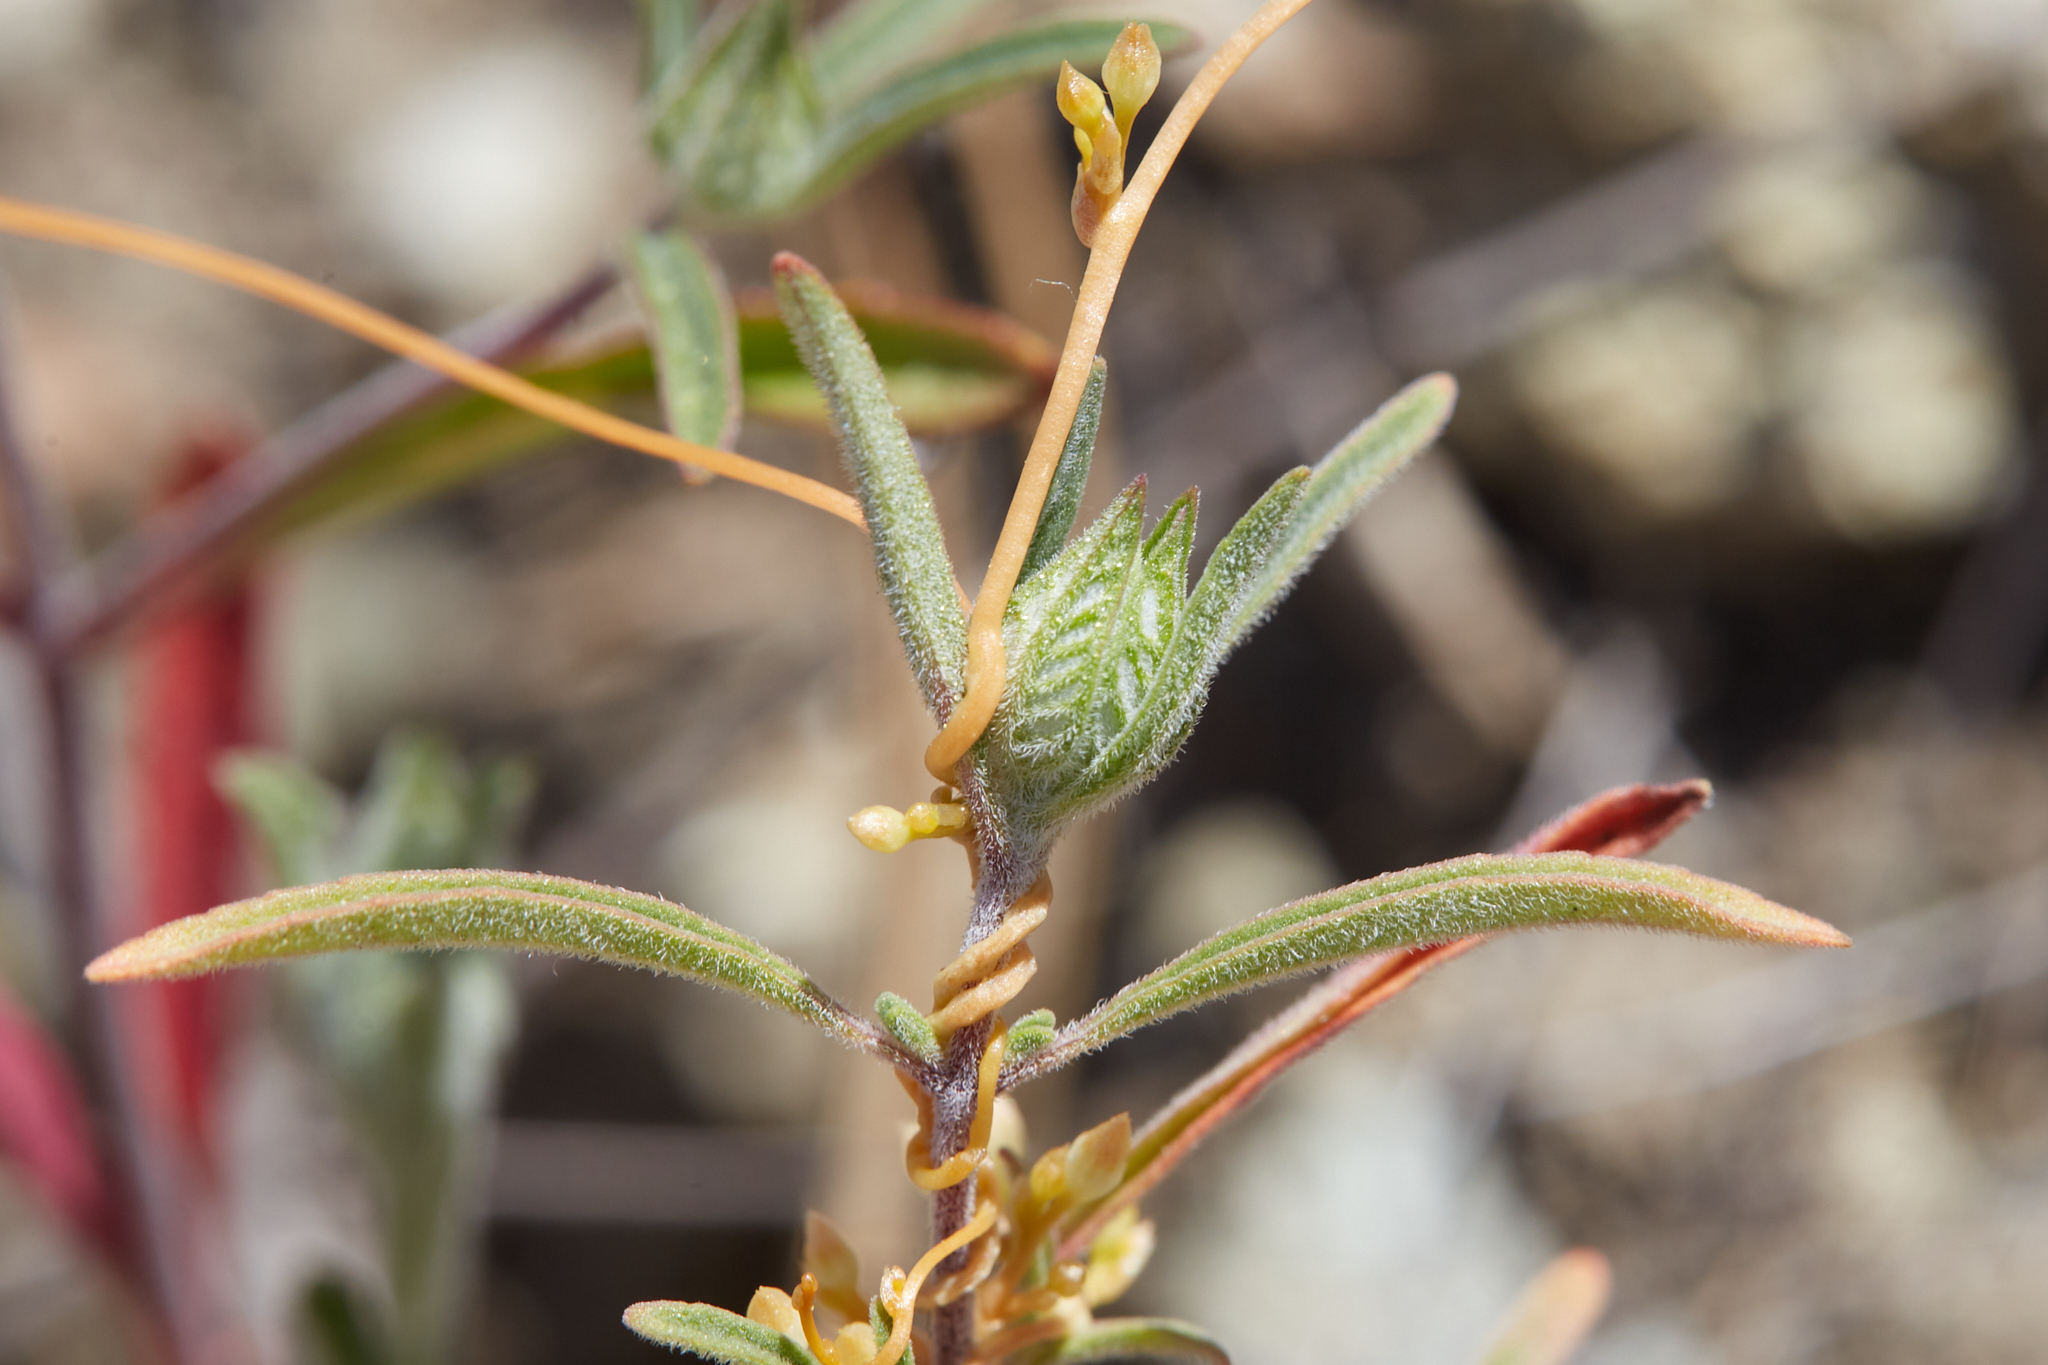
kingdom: Plantae
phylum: Tracheophyta
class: Magnoliopsida
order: Lamiales
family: Lamiaceae
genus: Monardella
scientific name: Monardella douglasii
